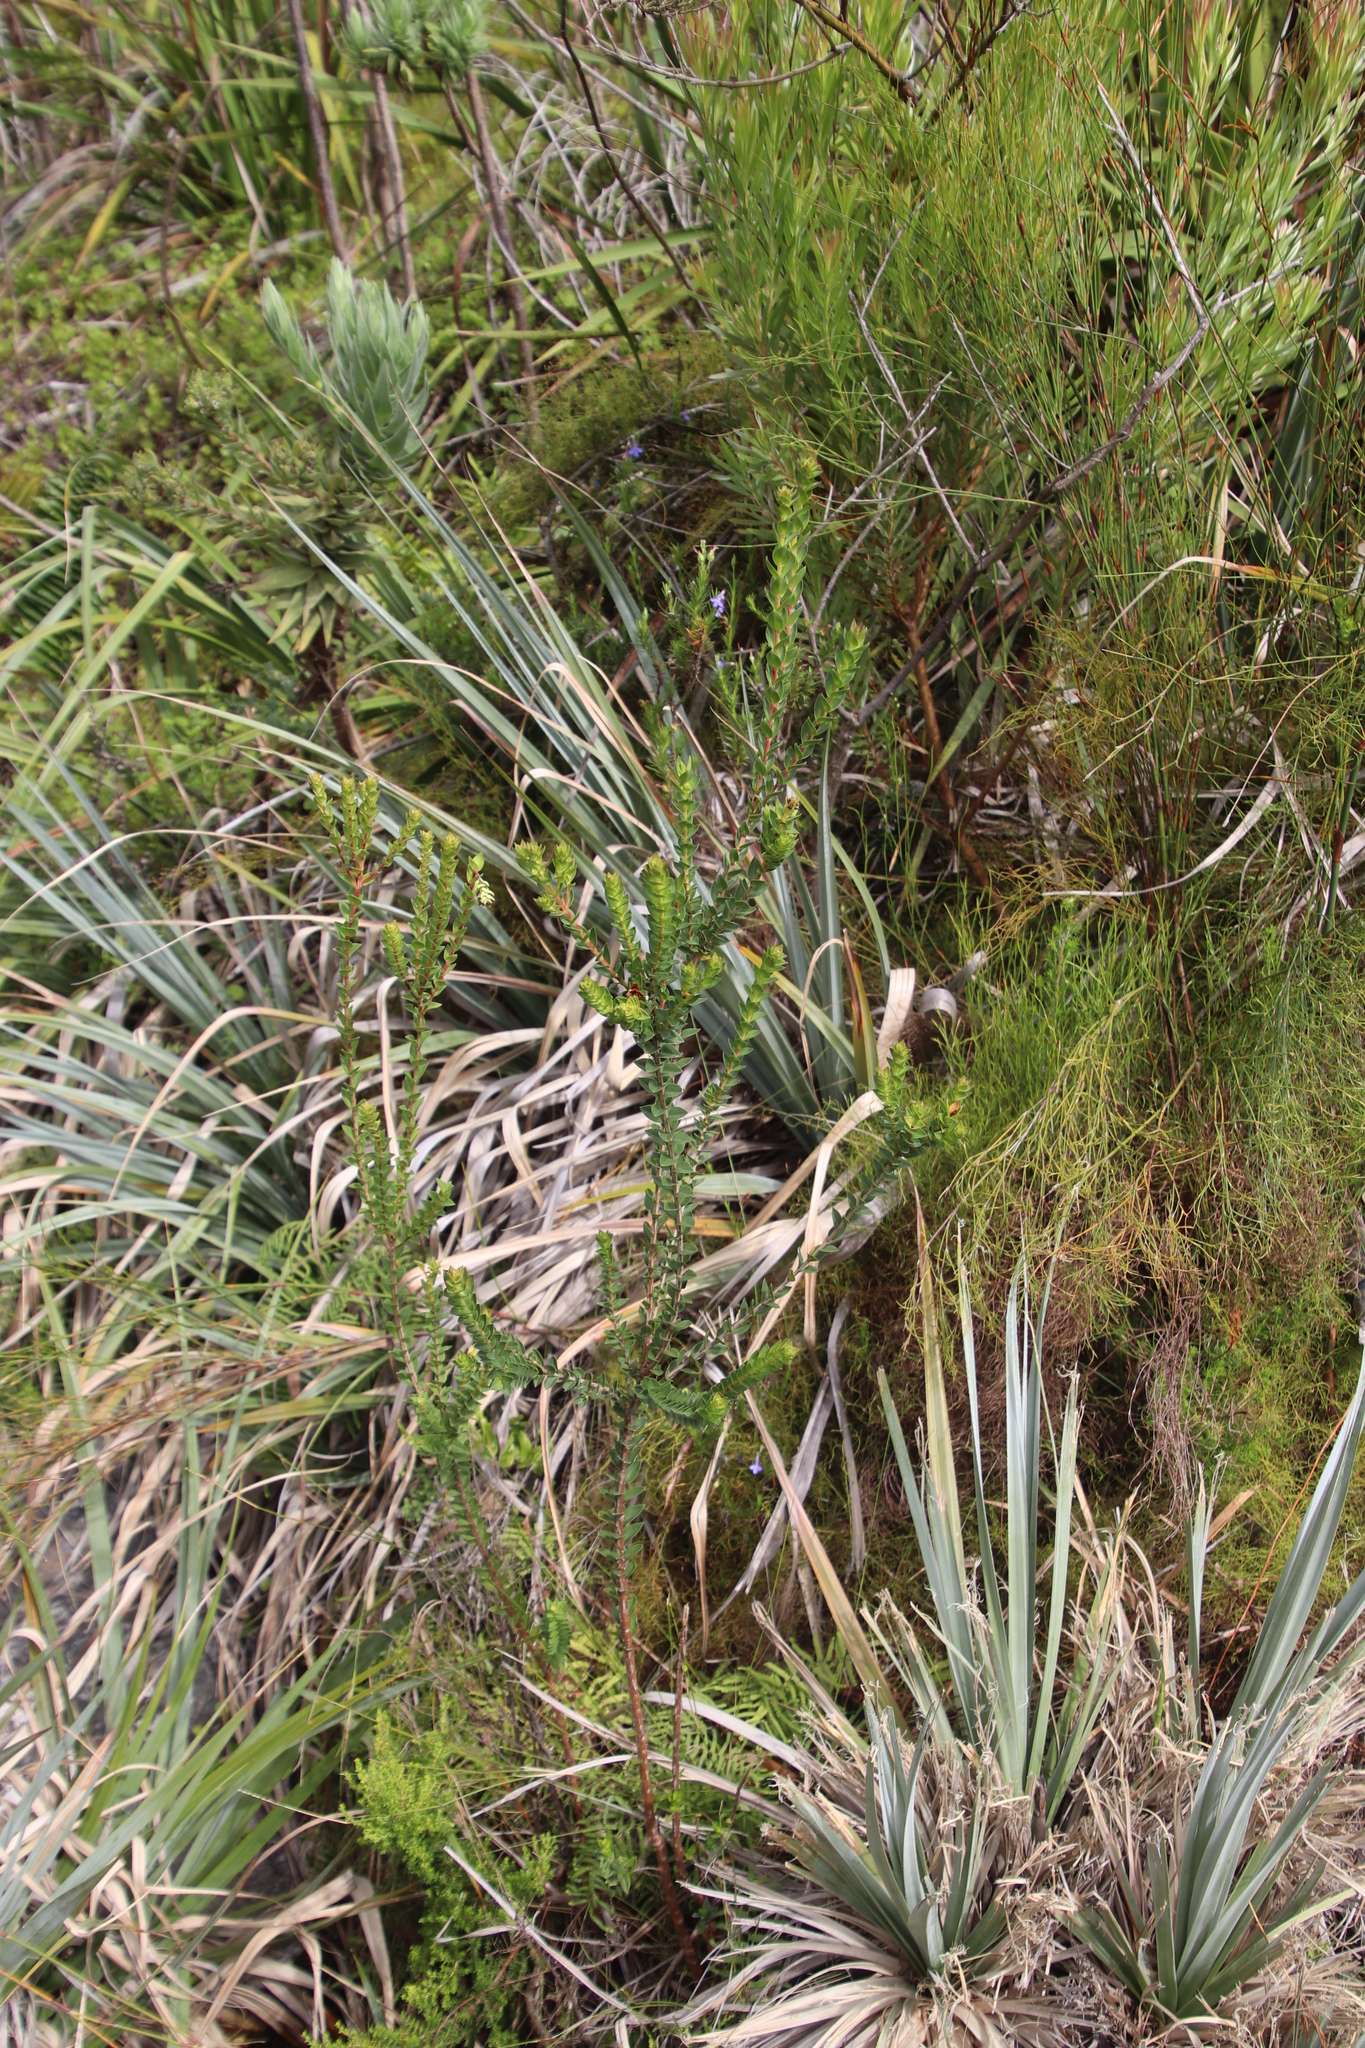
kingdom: Plantae
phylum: Tracheophyta
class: Liliopsida
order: Poales
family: Thurniaceae
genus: Prionium
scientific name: Prionium serratum
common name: Palmiet
